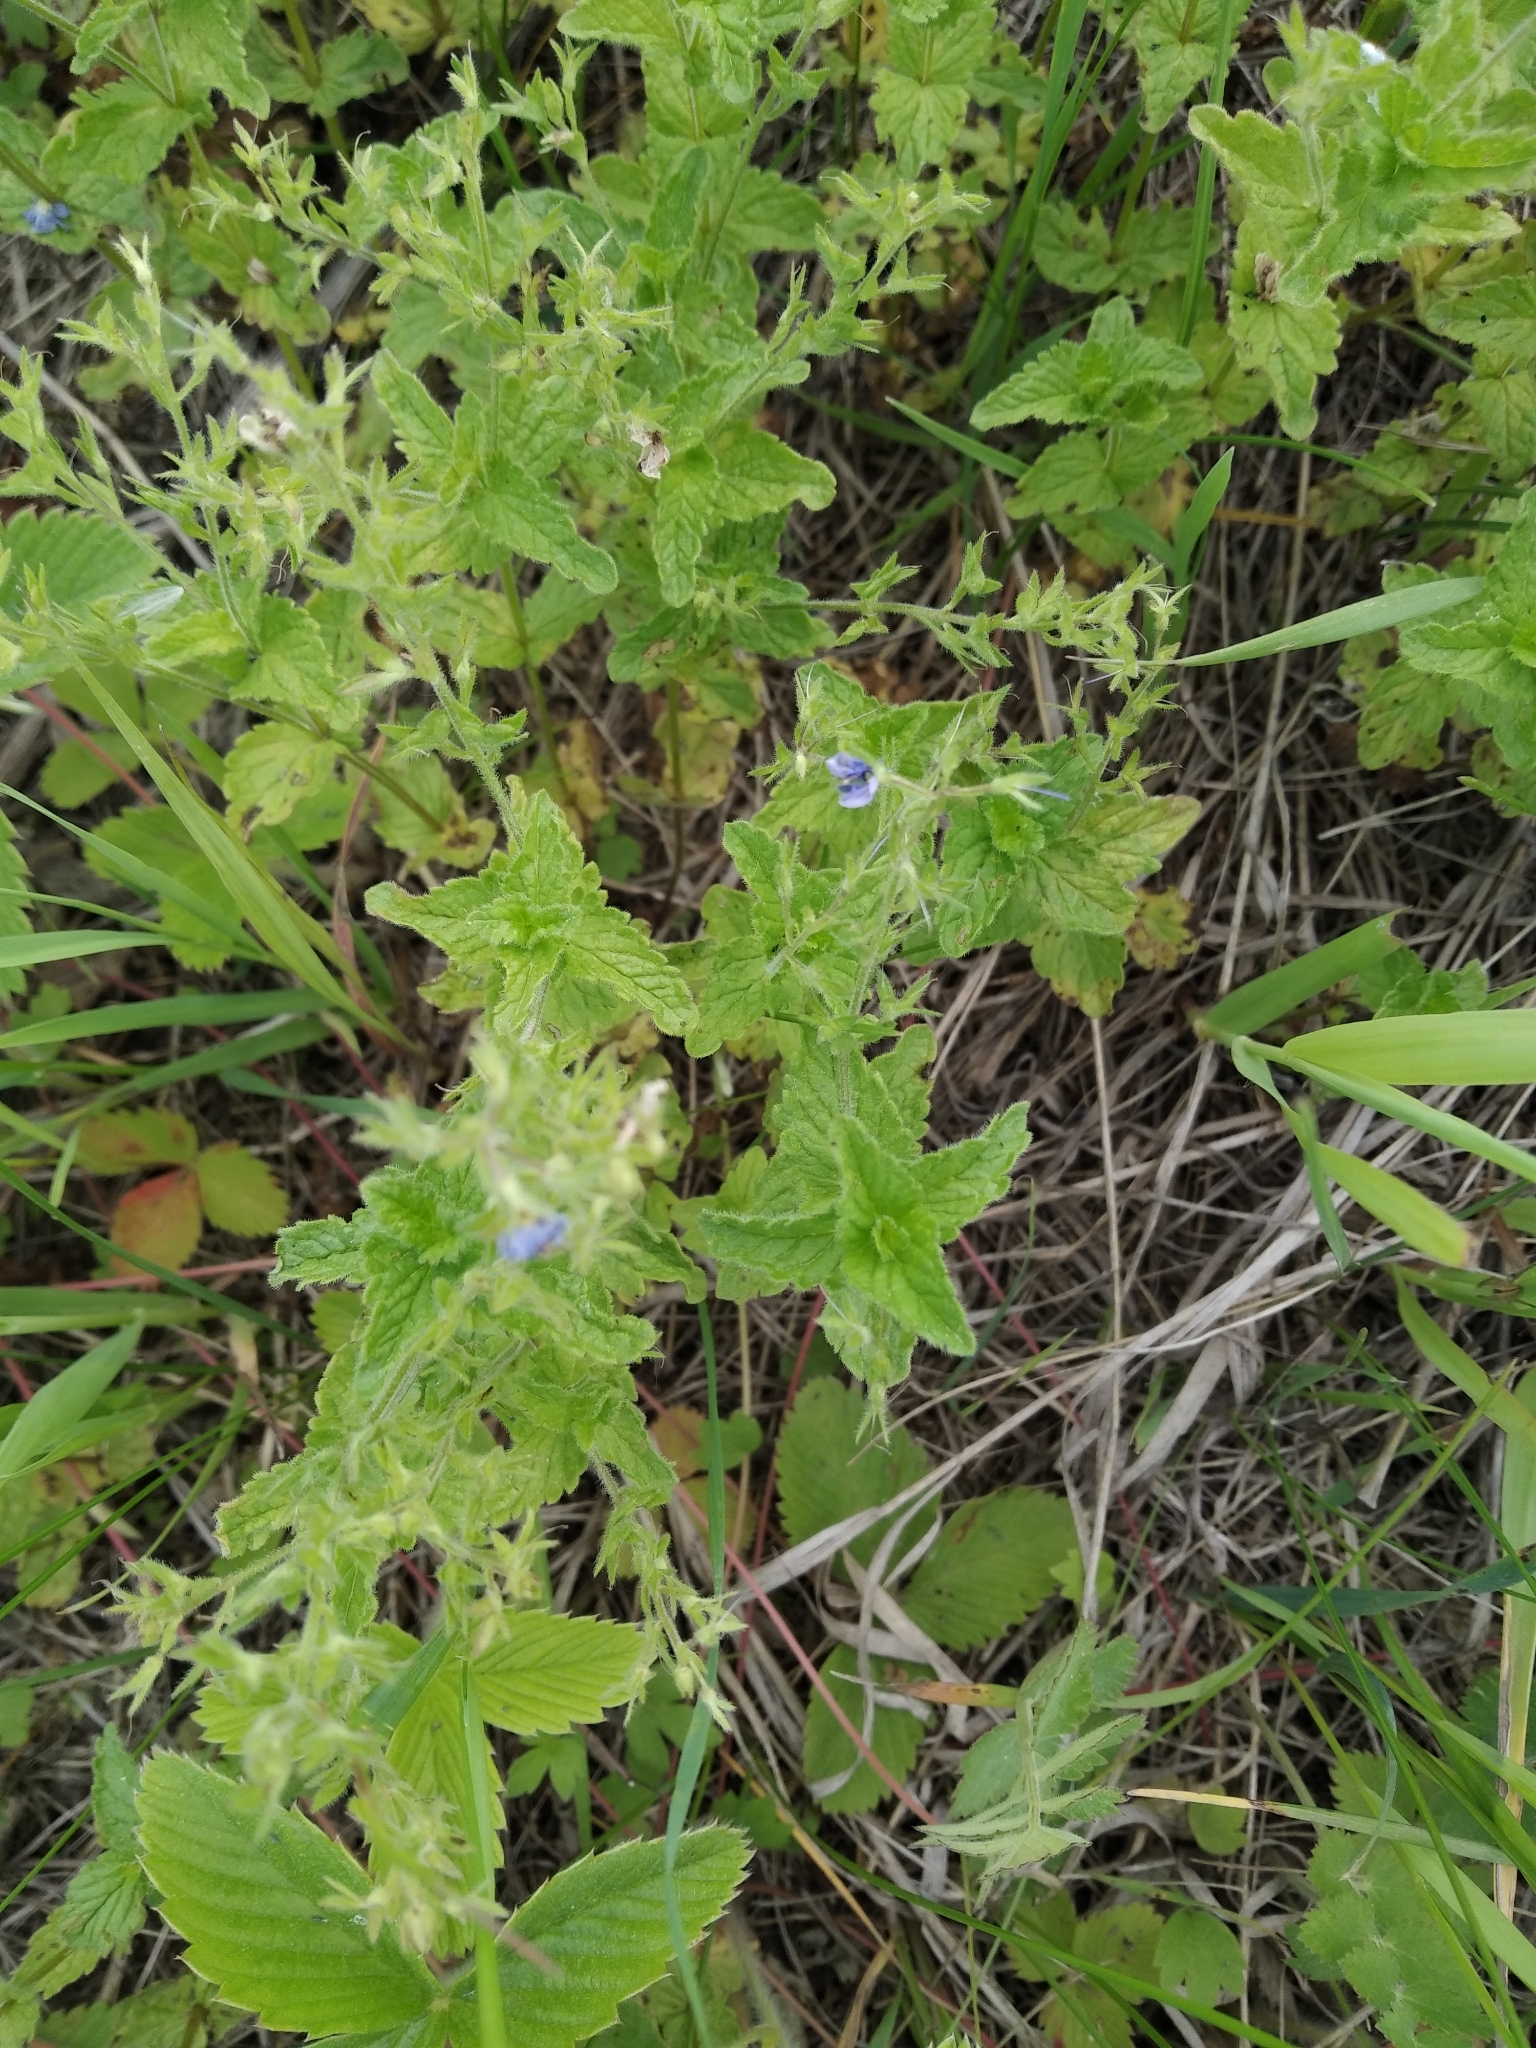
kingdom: Plantae
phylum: Tracheophyta
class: Magnoliopsida
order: Lamiales
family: Plantaginaceae
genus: Veronica
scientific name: Veronica chamaedrys
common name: Germander speedwell
